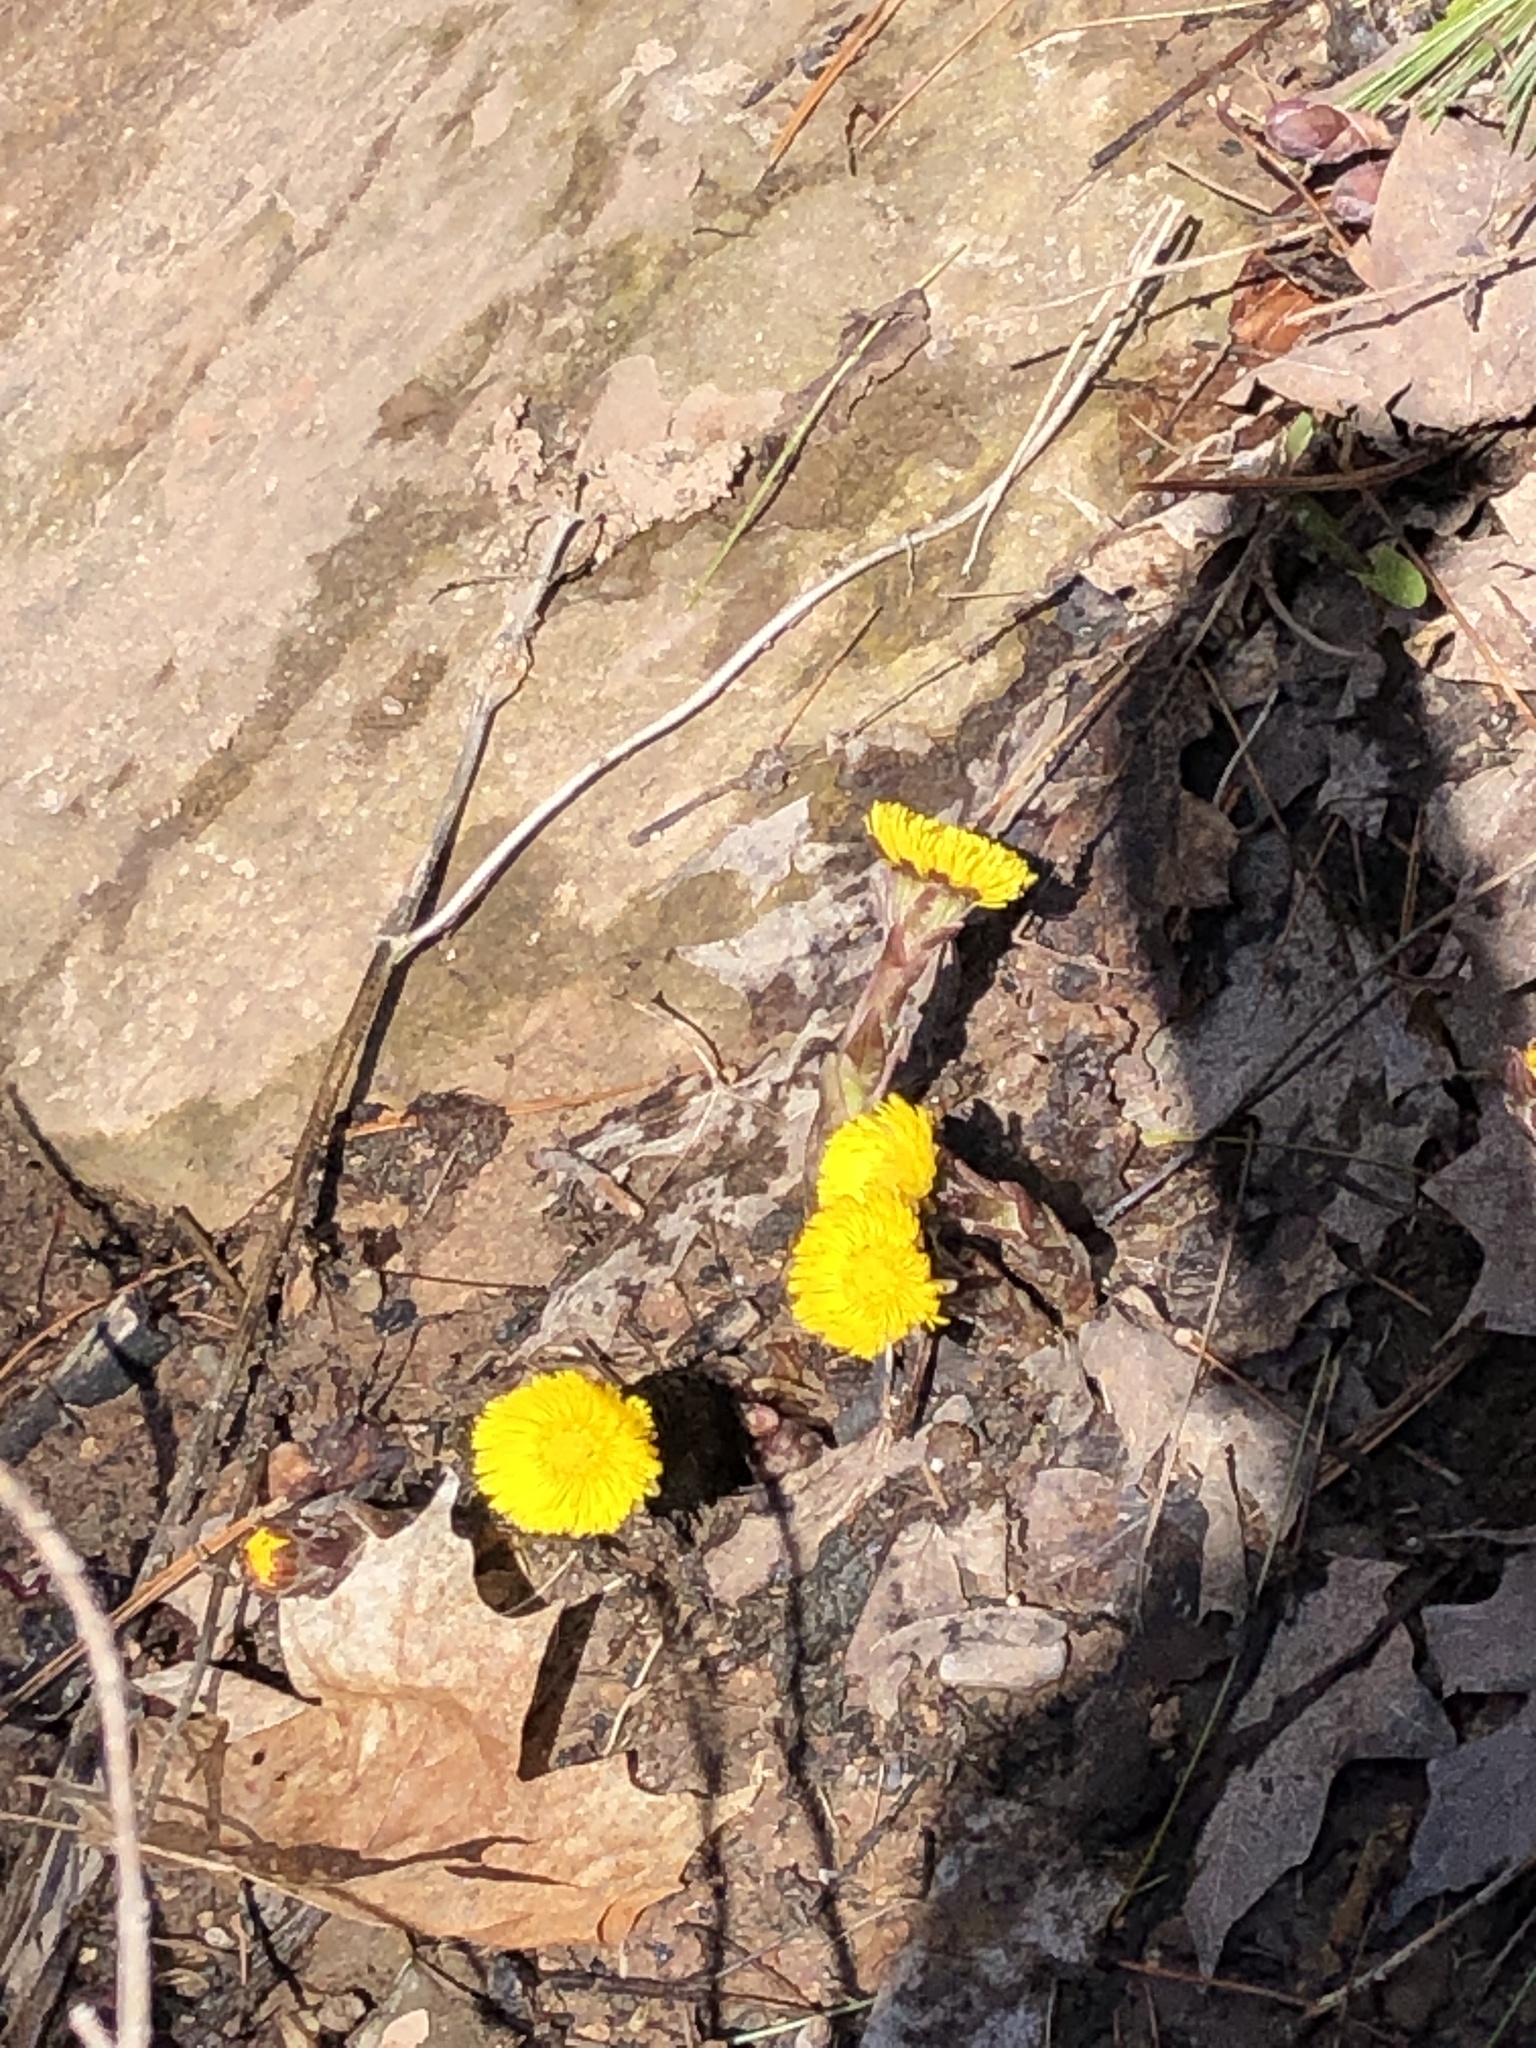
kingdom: Plantae
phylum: Tracheophyta
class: Magnoliopsida
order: Asterales
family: Asteraceae
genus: Tussilago
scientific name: Tussilago farfara
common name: Coltsfoot
